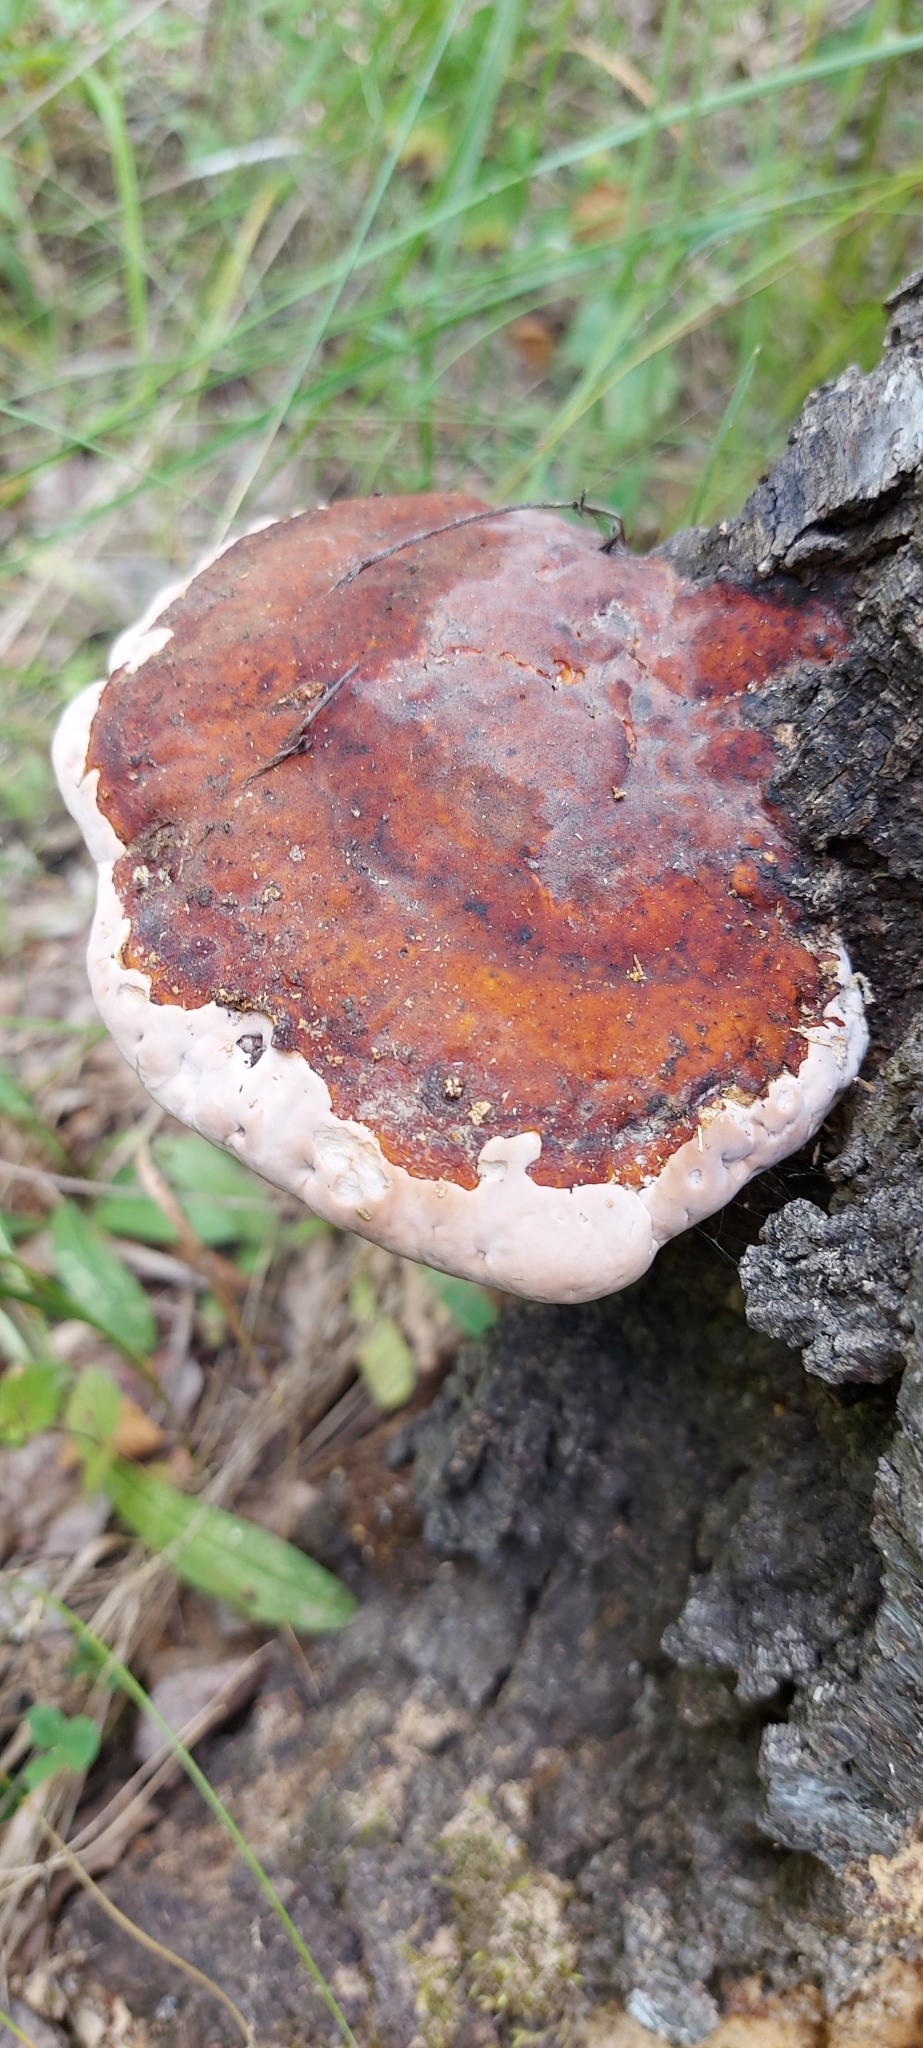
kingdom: Fungi
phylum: Basidiomycota
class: Agaricomycetes
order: Polyporales
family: Fomitopsidaceae
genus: Fomitopsis
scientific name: Fomitopsis pinicola
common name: Red-belted bracket
